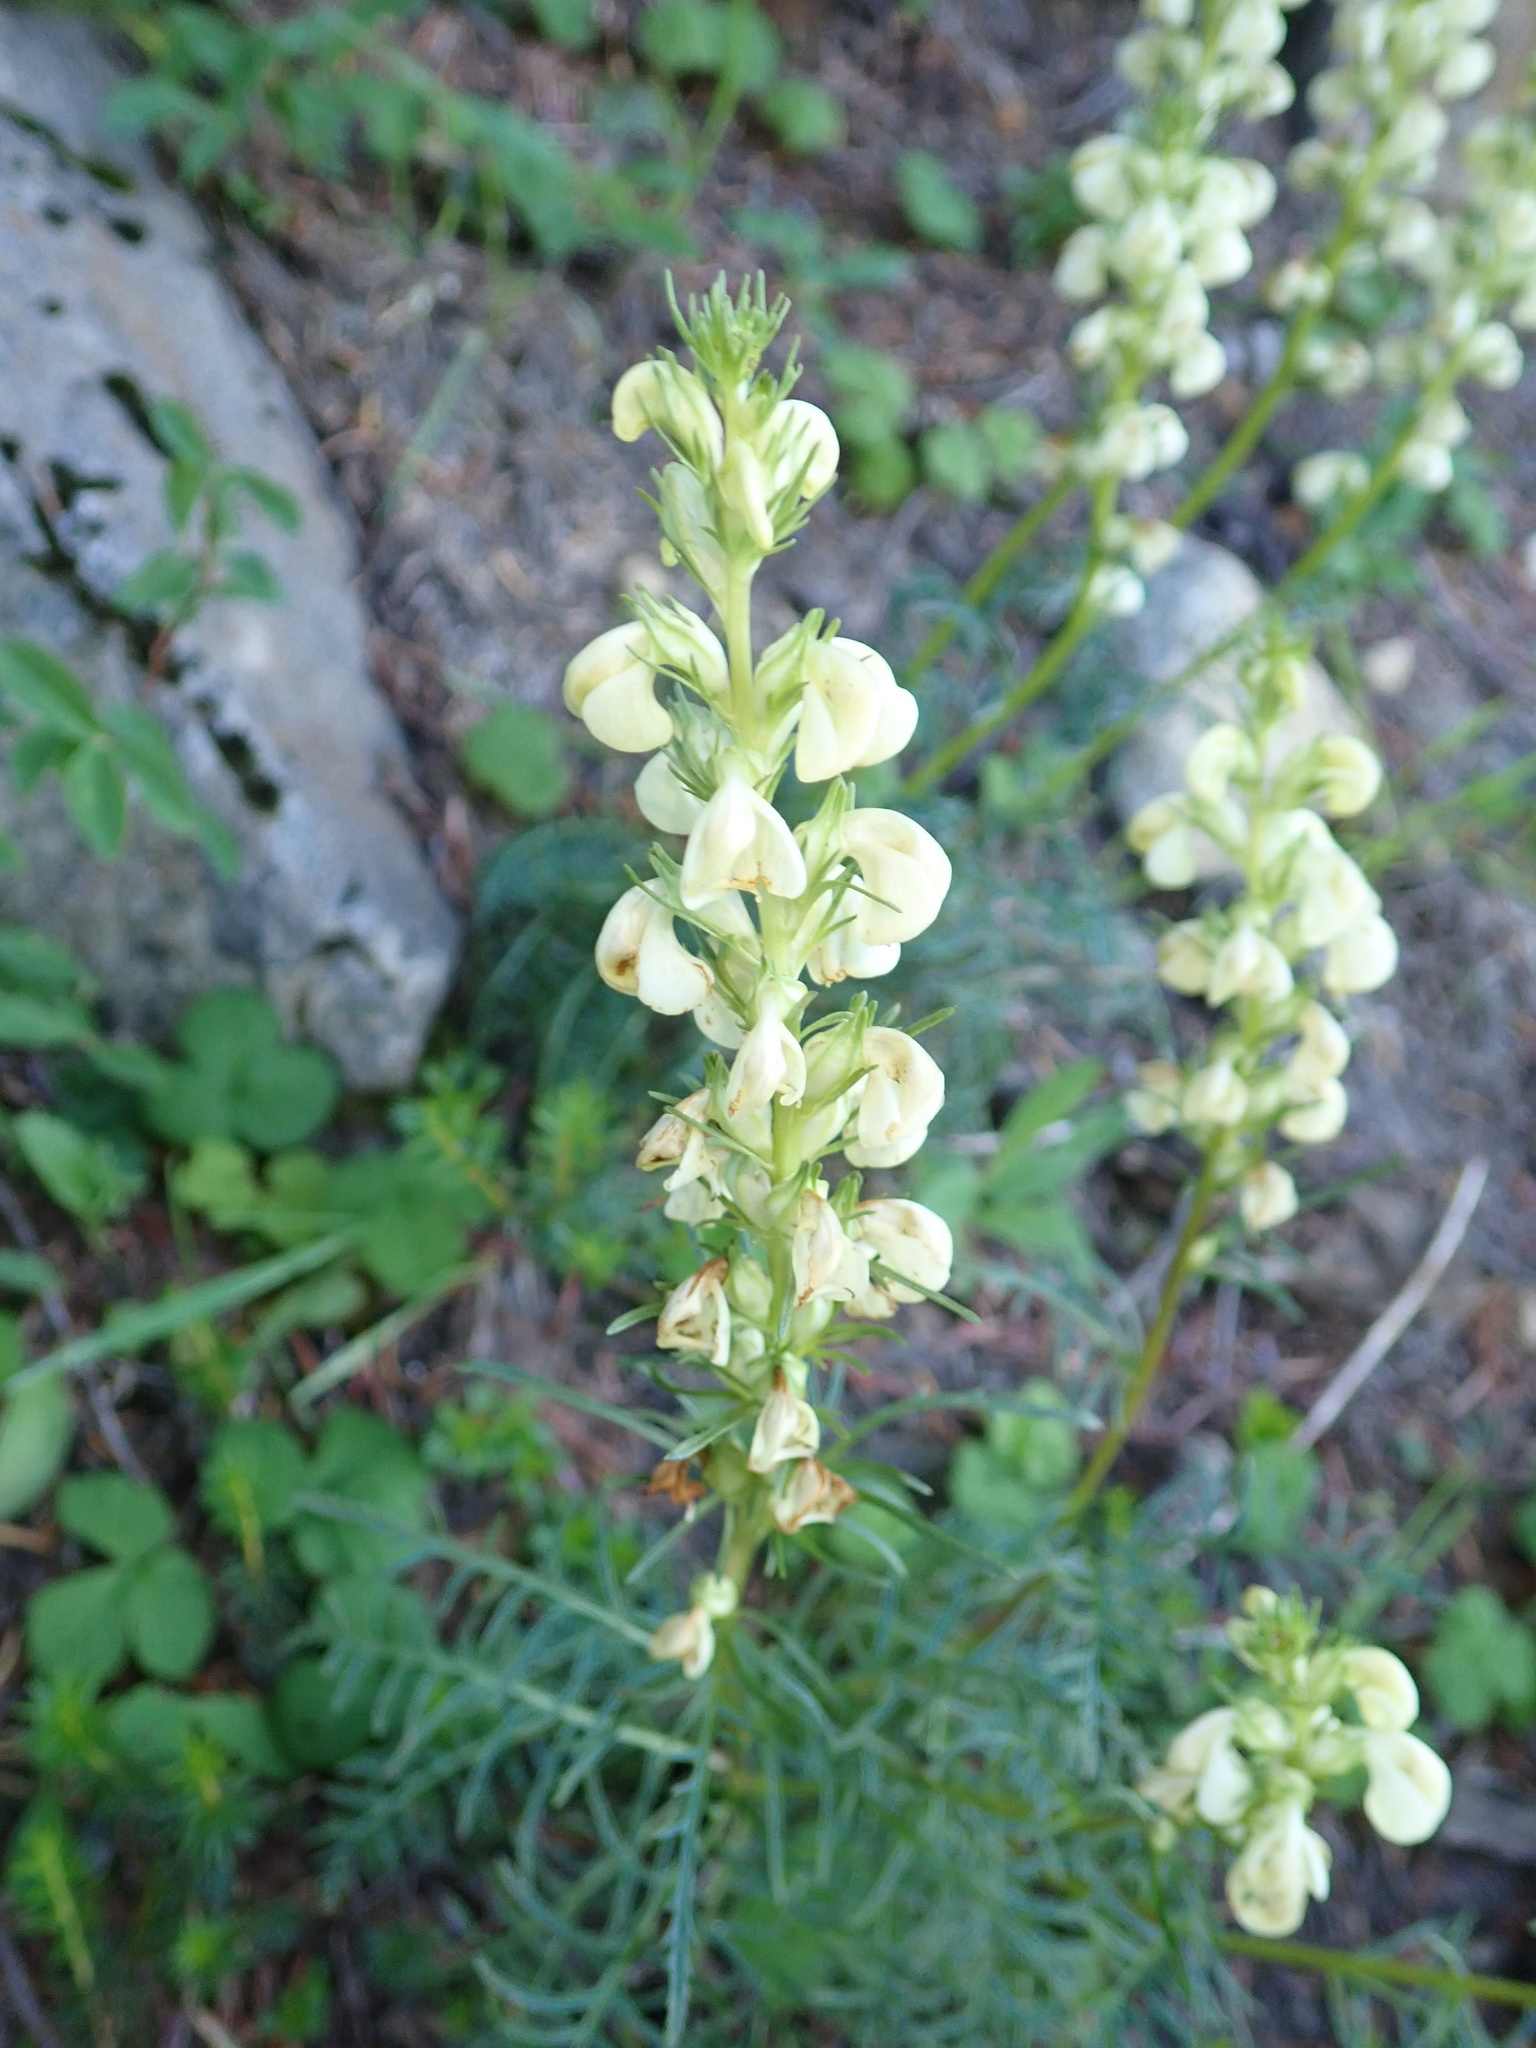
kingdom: Plantae
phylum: Tracheophyta
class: Magnoliopsida
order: Lamiales
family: Orobanchaceae
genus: Pedicularis
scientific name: Pedicularis contorta
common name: Coiled lousewort
